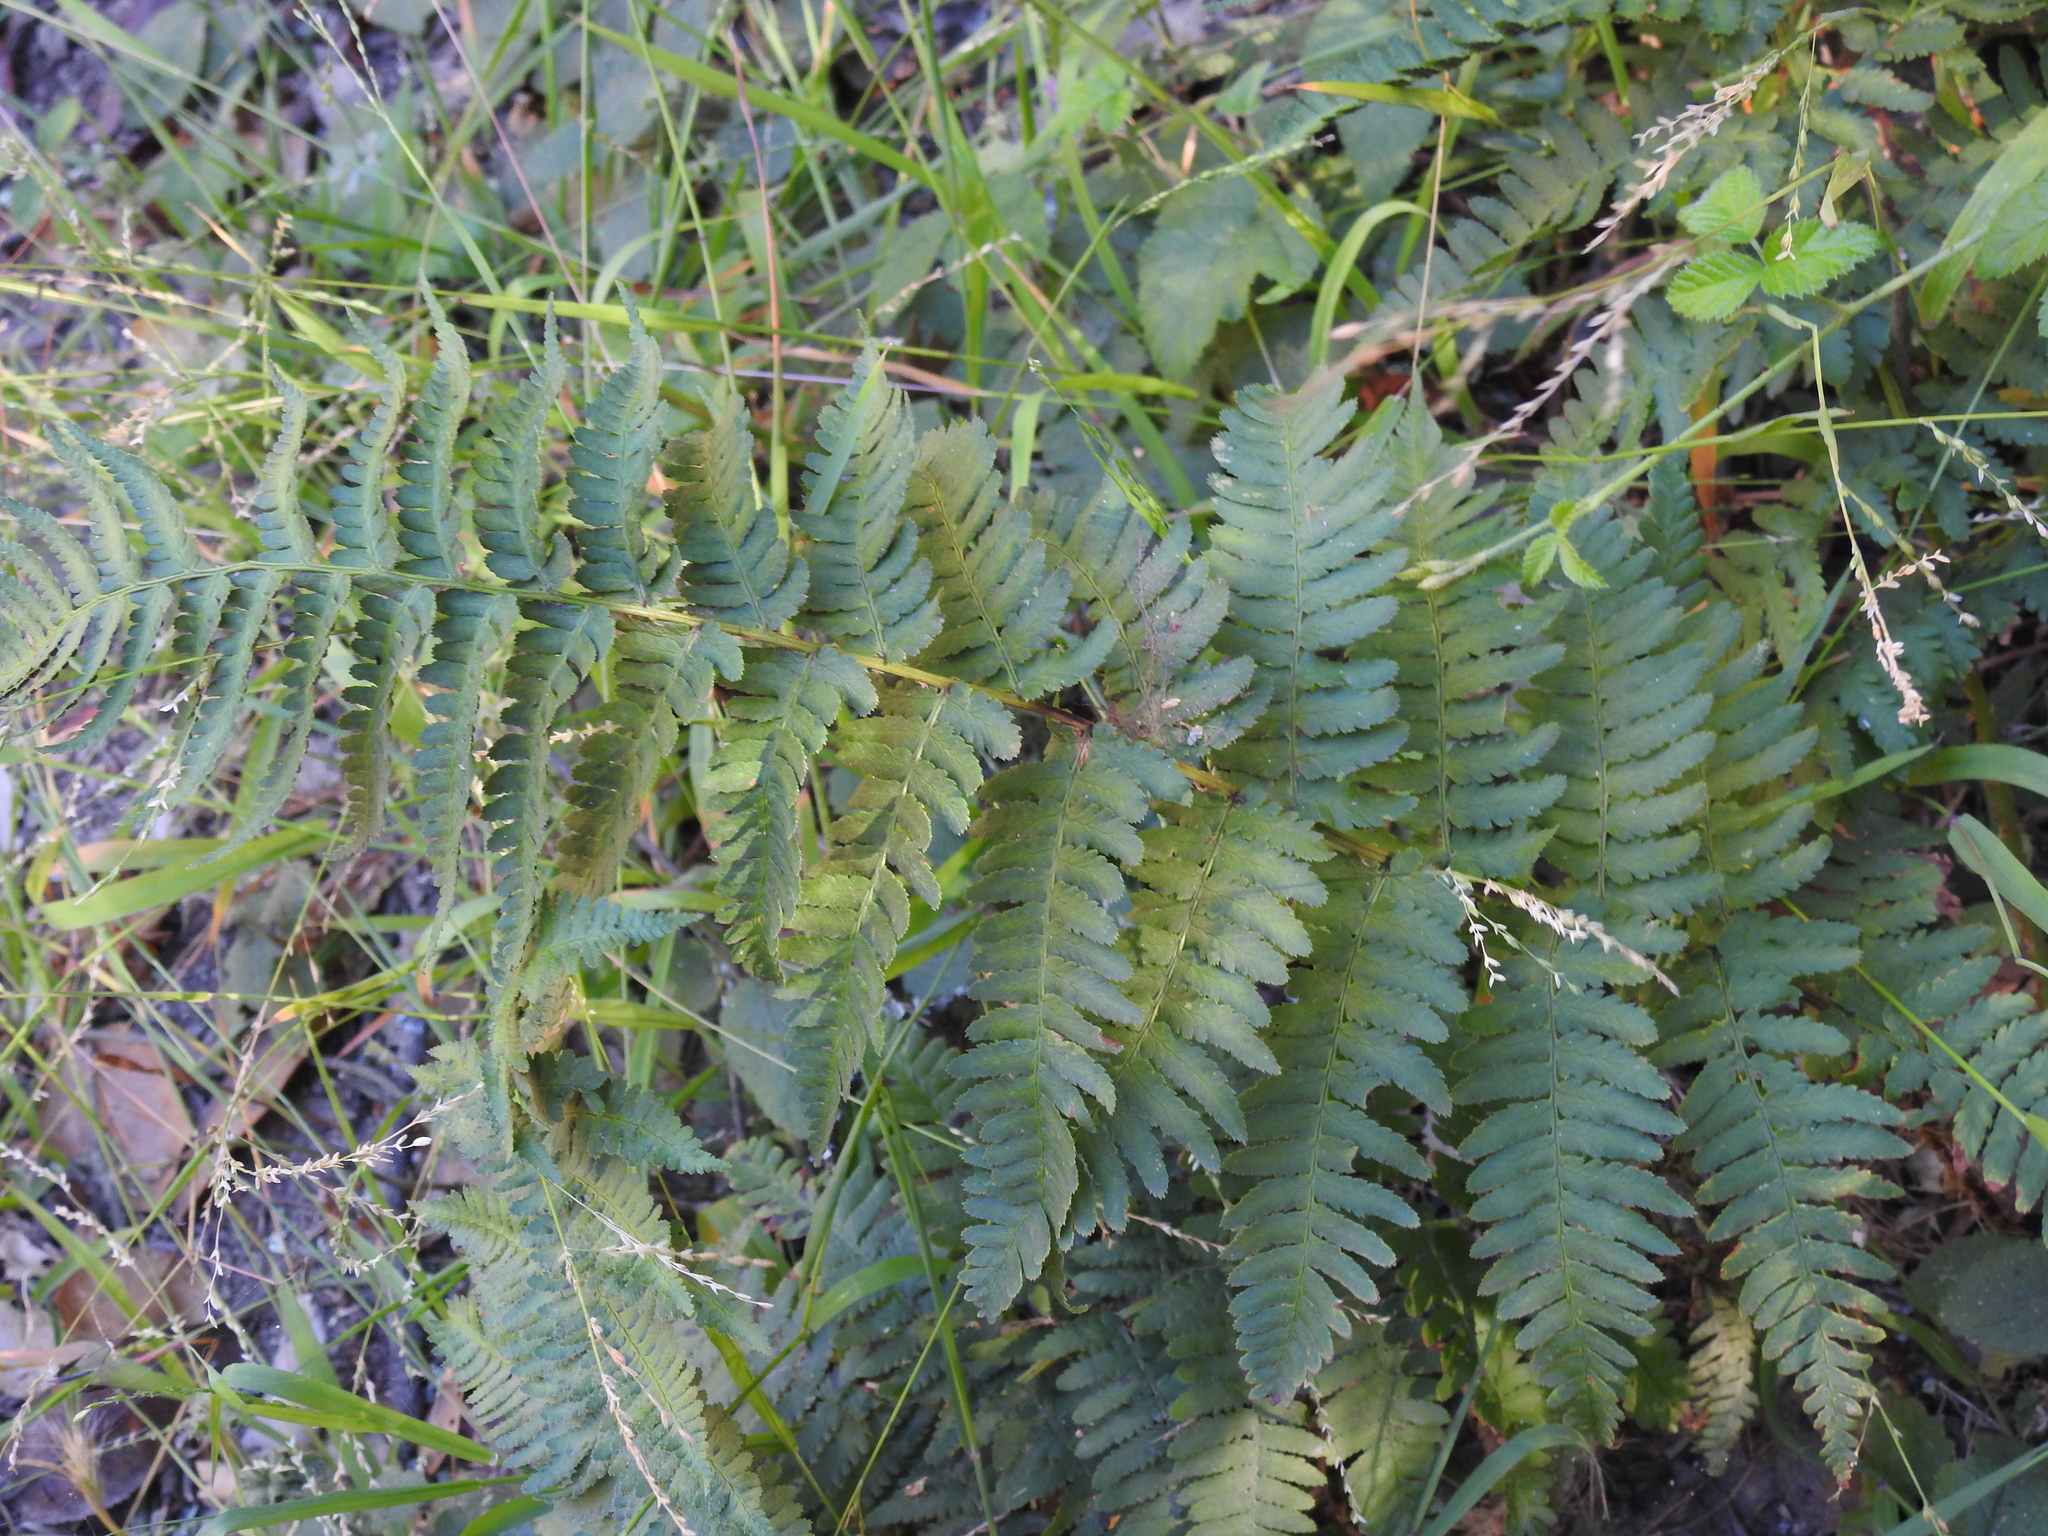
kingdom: Plantae
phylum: Tracheophyta
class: Polypodiopsida
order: Polypodiales
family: Dryopteridaceae
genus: Dryopteris
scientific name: Dryopteris arguta
